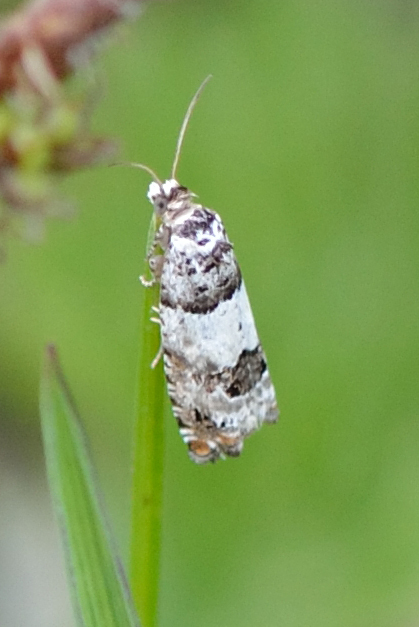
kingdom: Animalia
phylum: Arthropoda
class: Insecta
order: Lepidoptera
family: Tortricidae
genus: Epinotia
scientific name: Epinotia thapsiana
